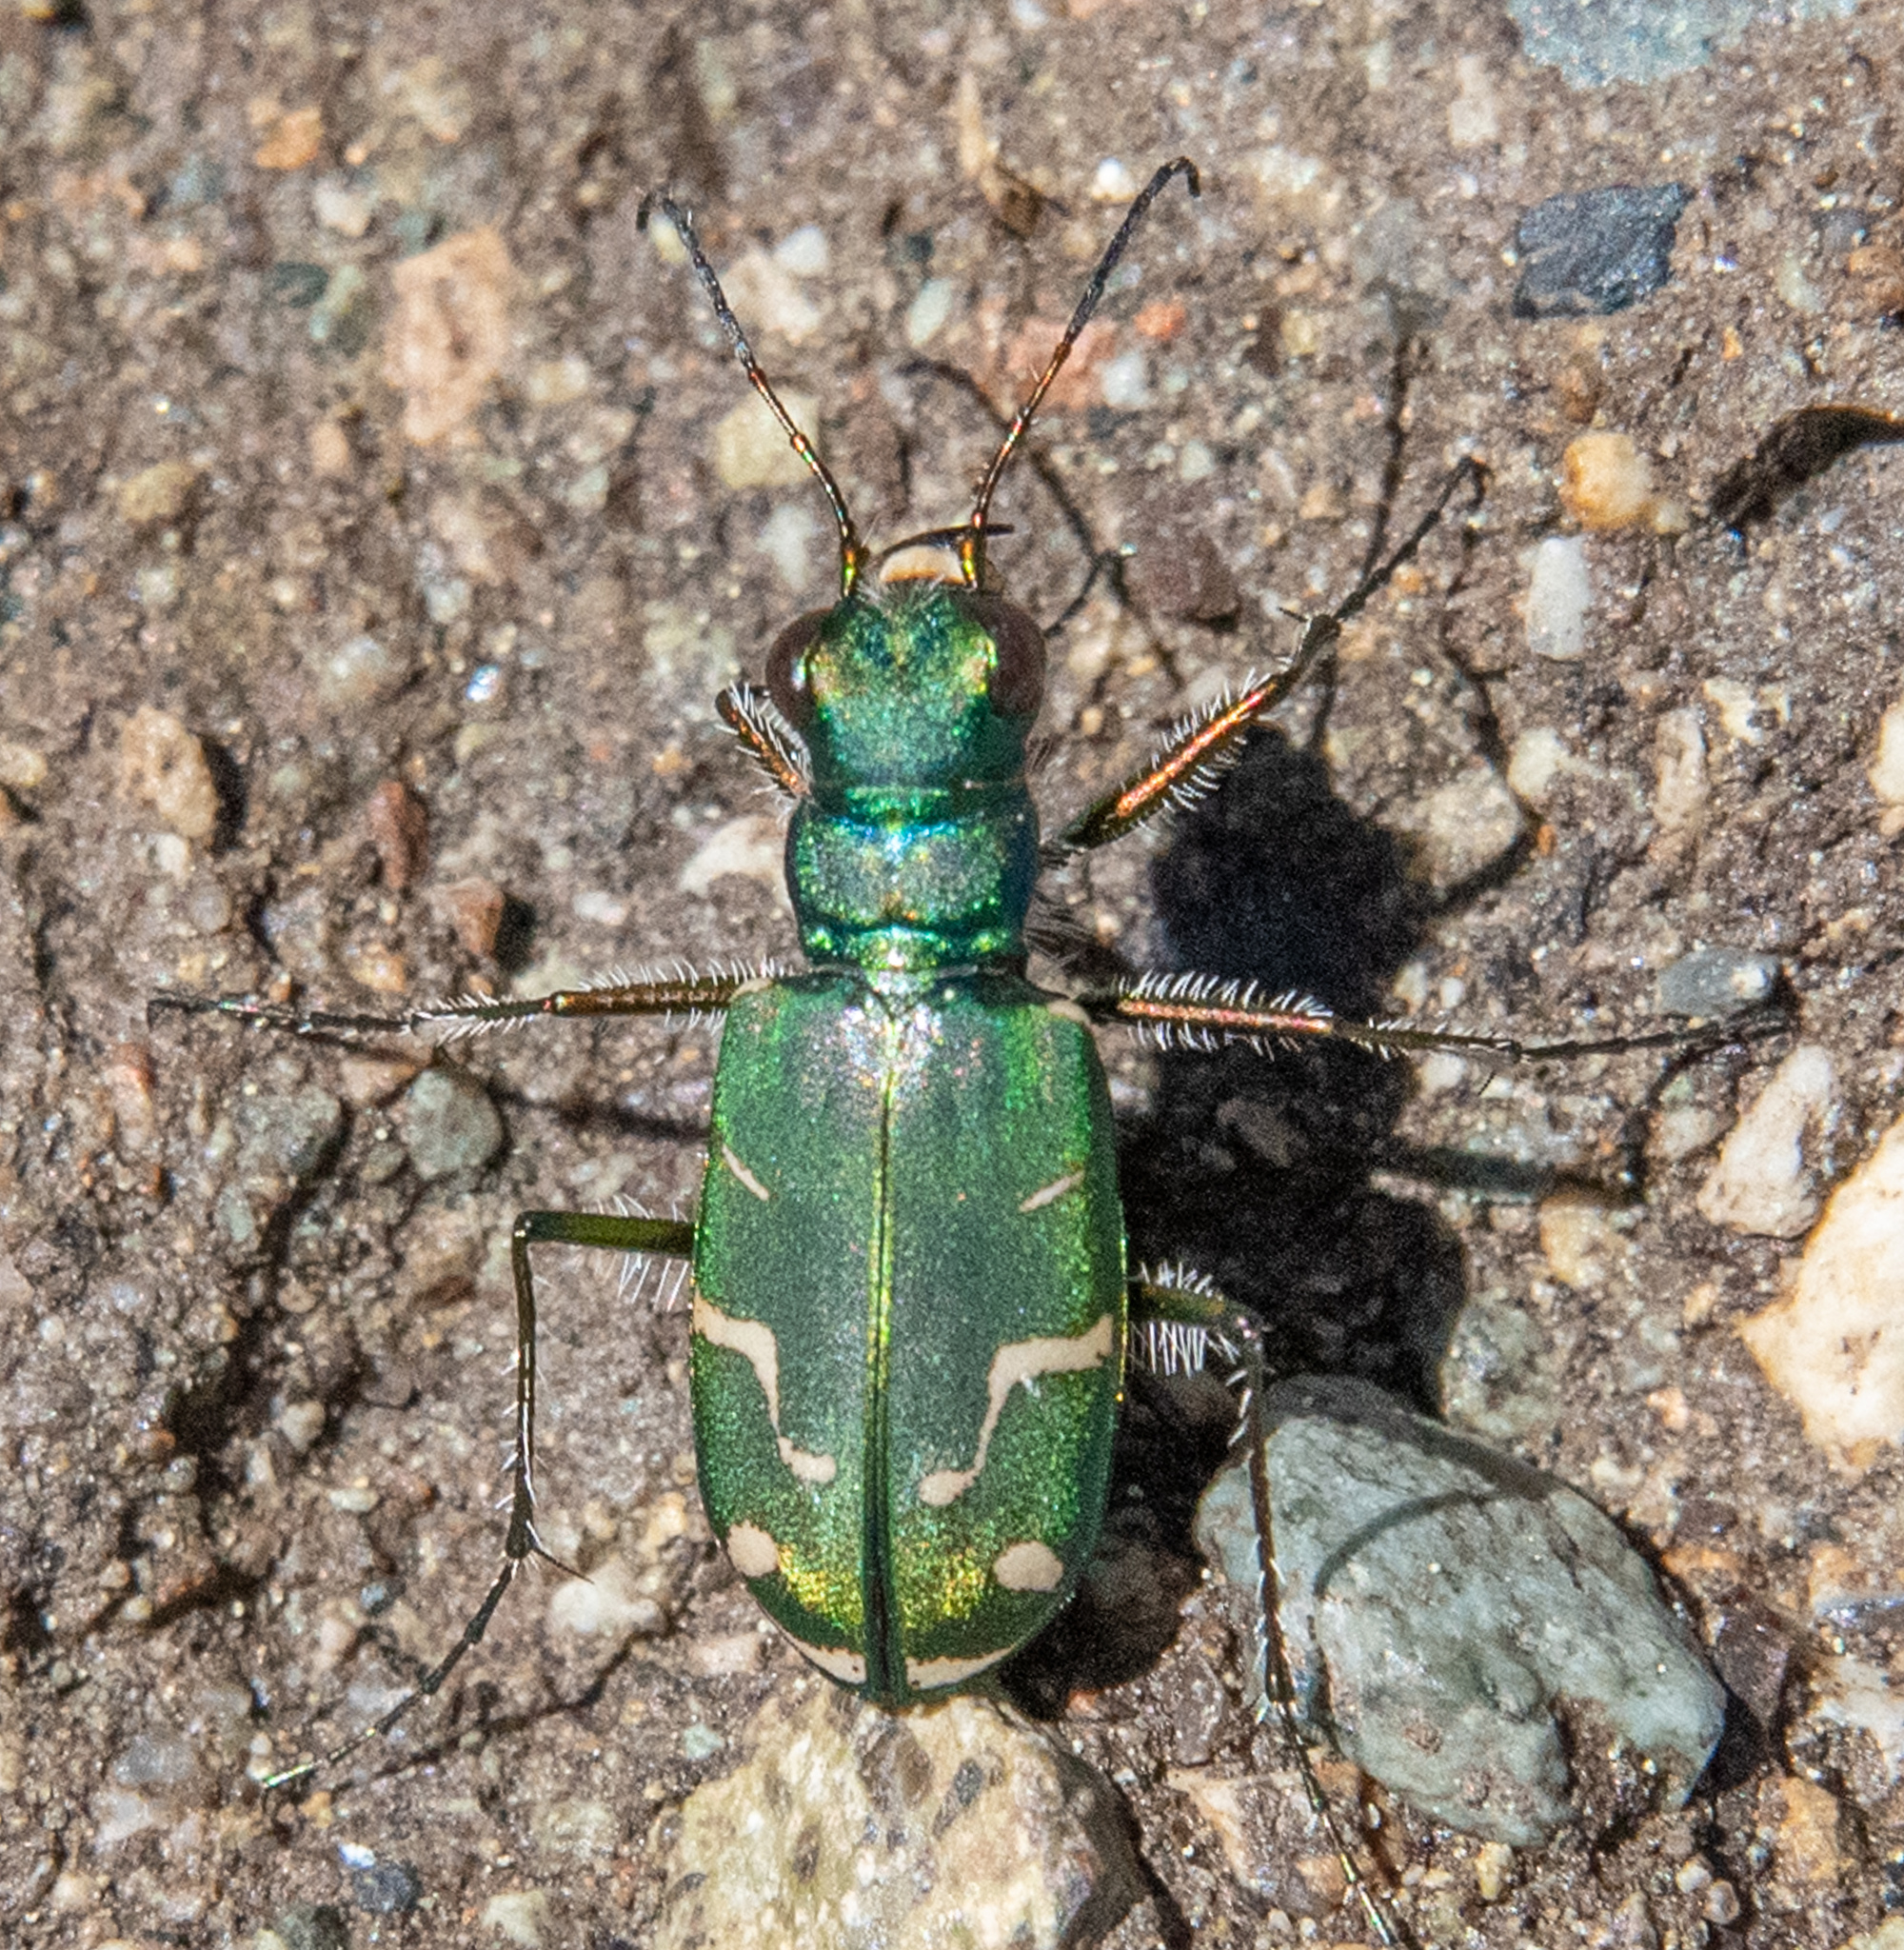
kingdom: Animalia
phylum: Arthropoda
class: Insecta
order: Coleoptera
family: Carabidae
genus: Cicindela
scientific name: Cicindela tranquebarica
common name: Oblique-lined tiger beetle
